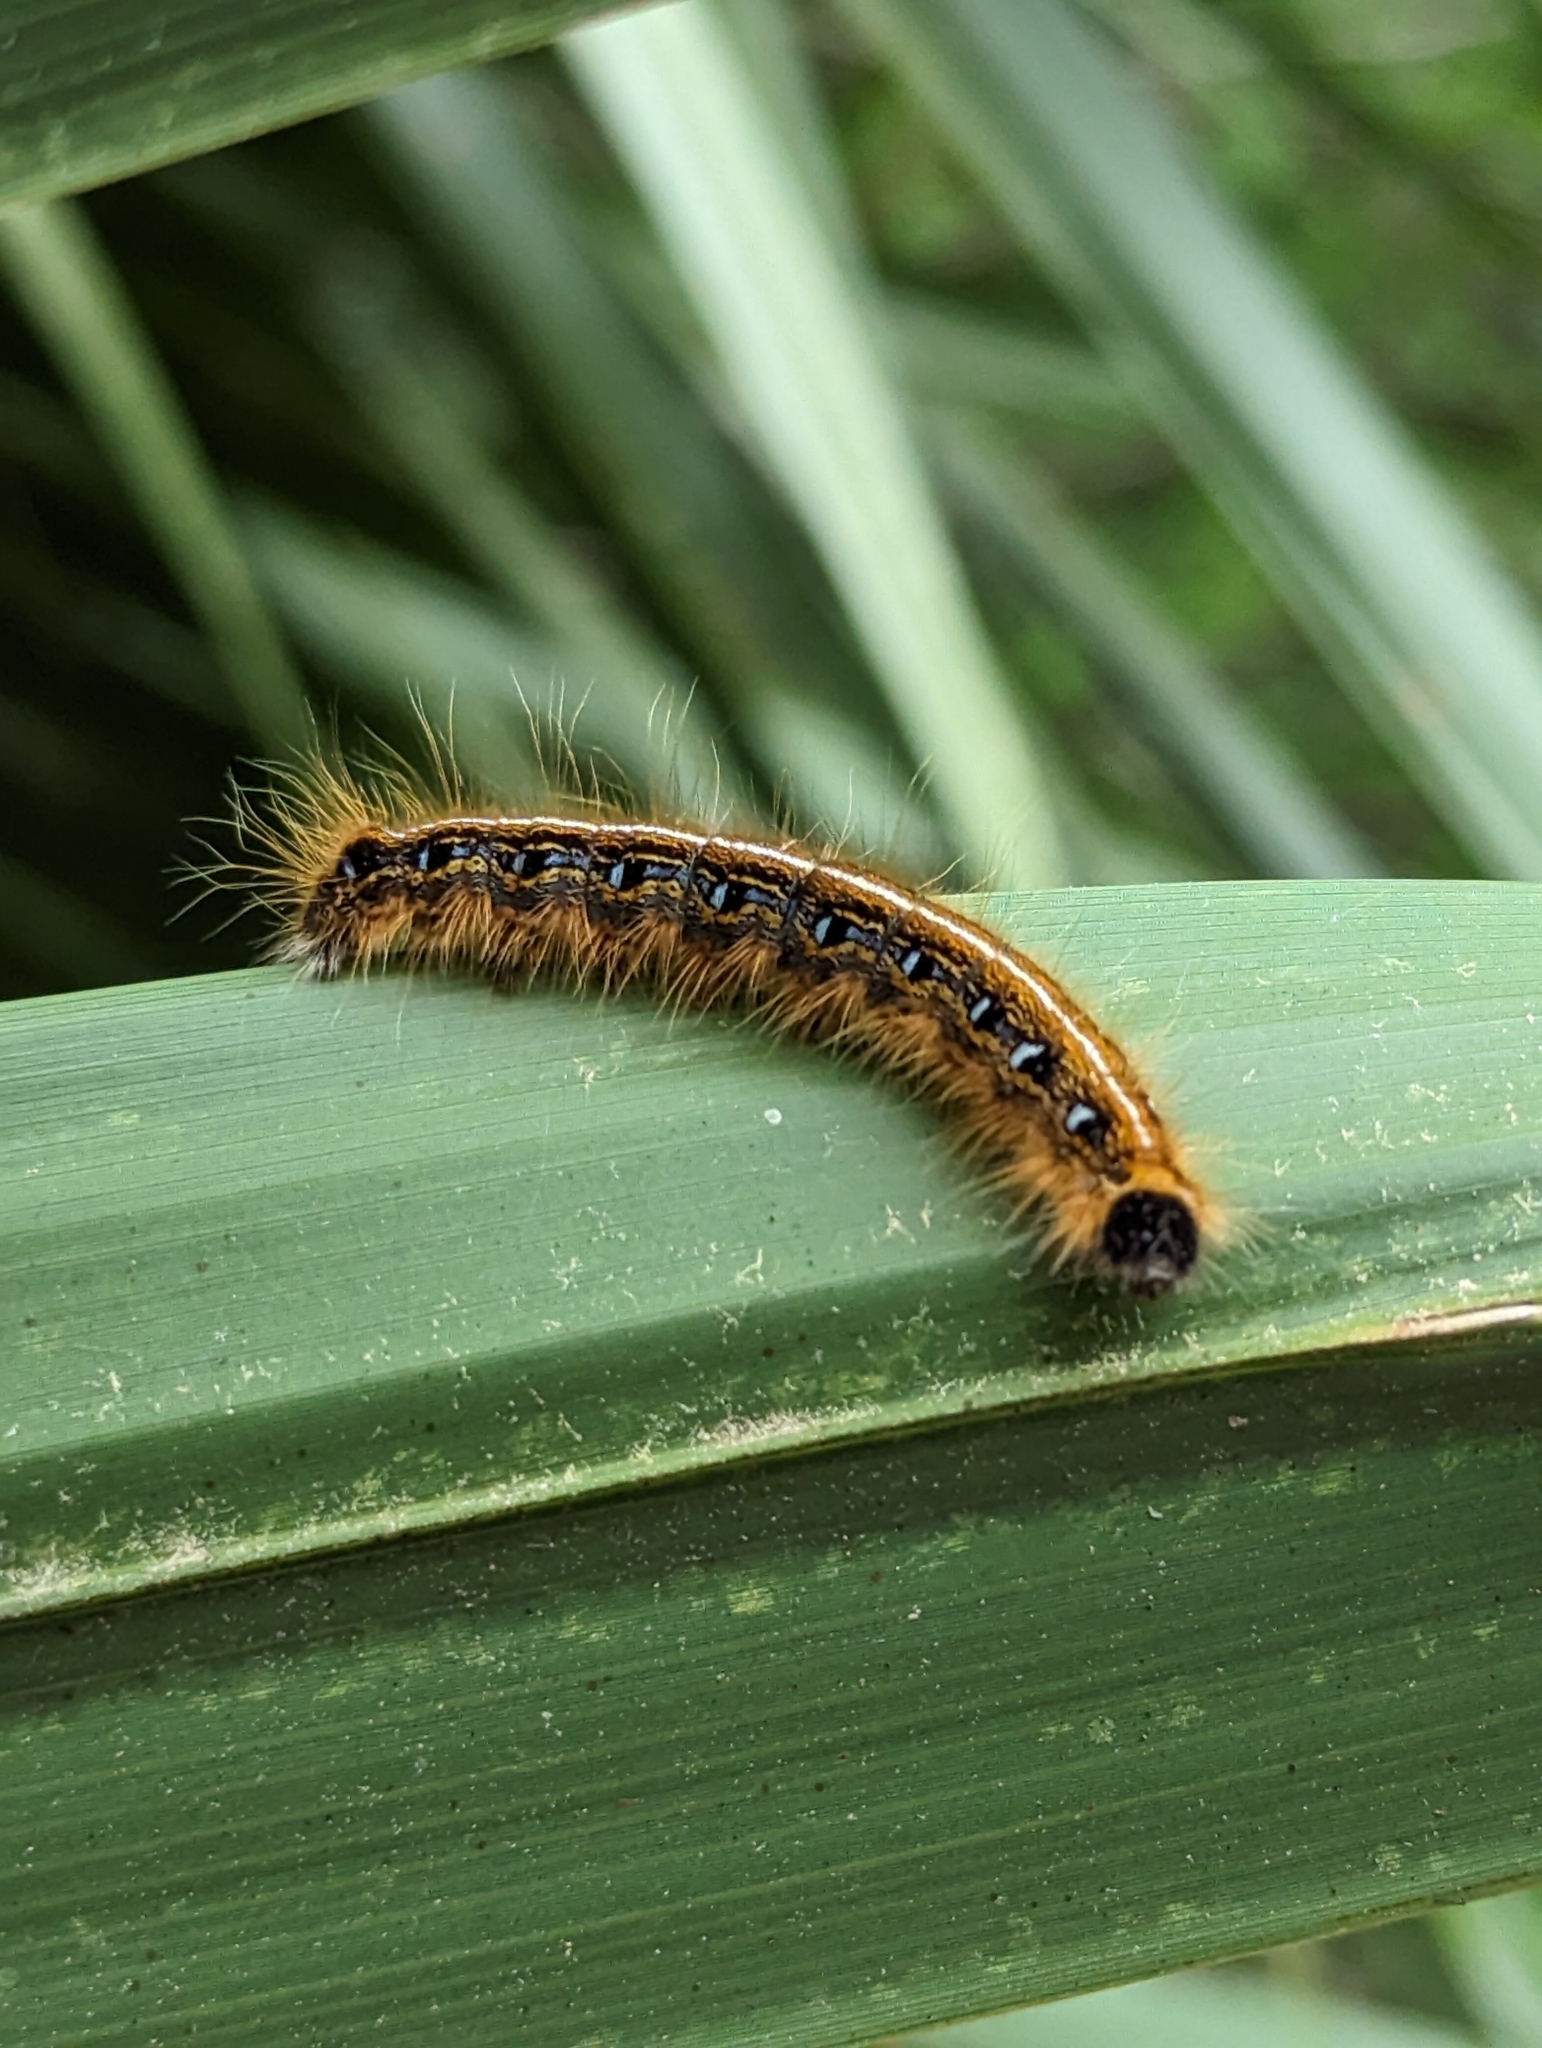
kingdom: Animalia
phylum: Arthropoda
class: Insecta
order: Lepidoptera
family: Lasiocampidae
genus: Malacosoma
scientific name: Malacosoma americana
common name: Eastern tent caterpillar moth
